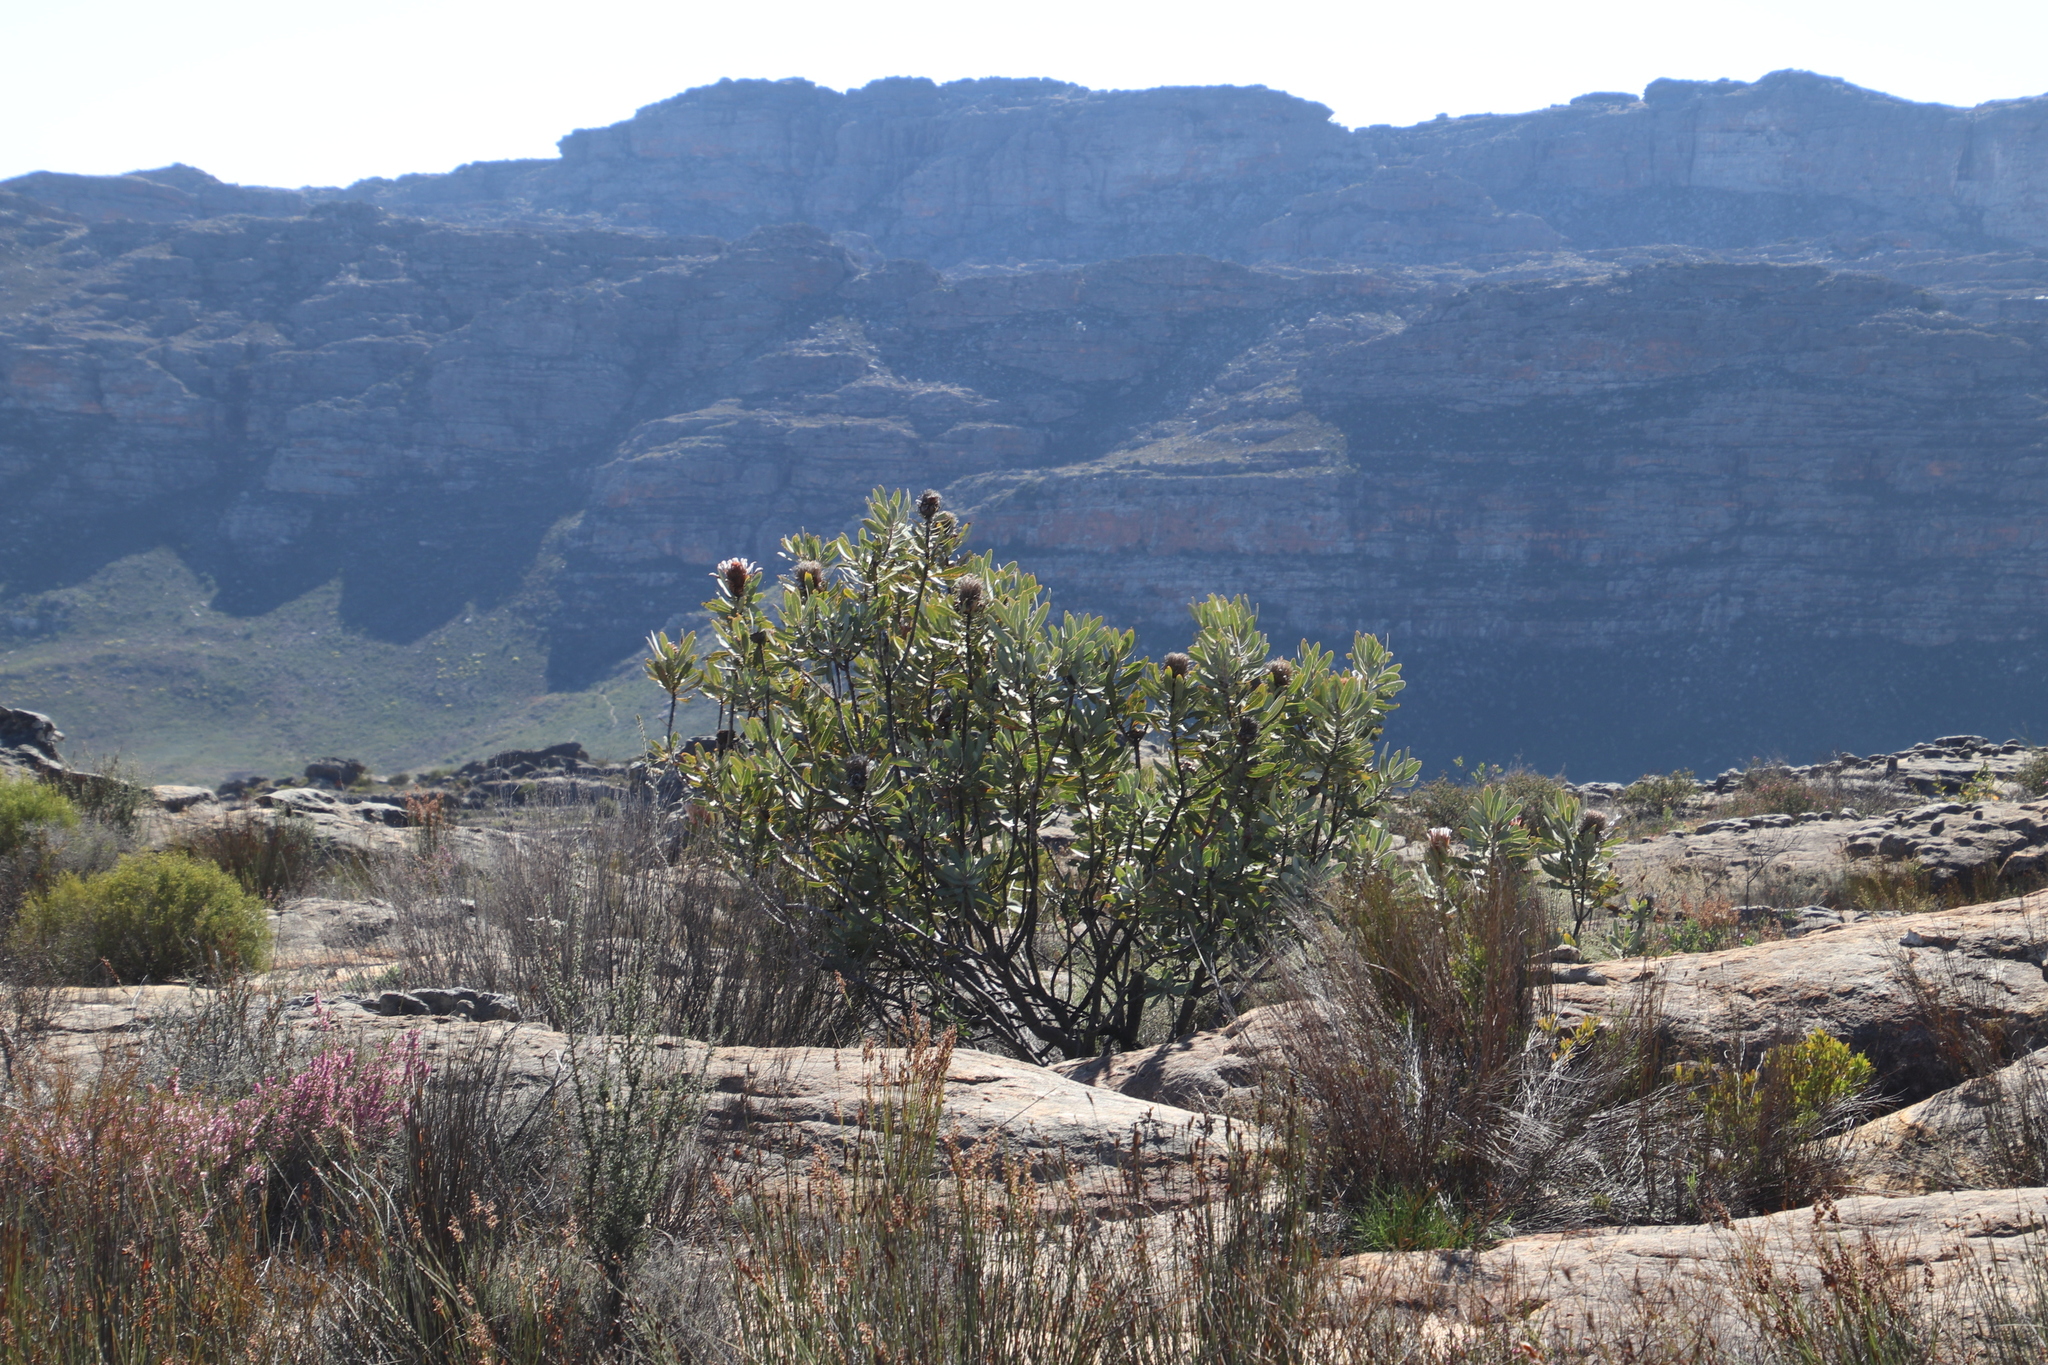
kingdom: Plantae
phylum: Tracheophyta
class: Magnoliopsida
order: Proteales
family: Proteaceae
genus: Protea
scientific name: Protea laurifolia
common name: Grey-leaf sugarbsh
